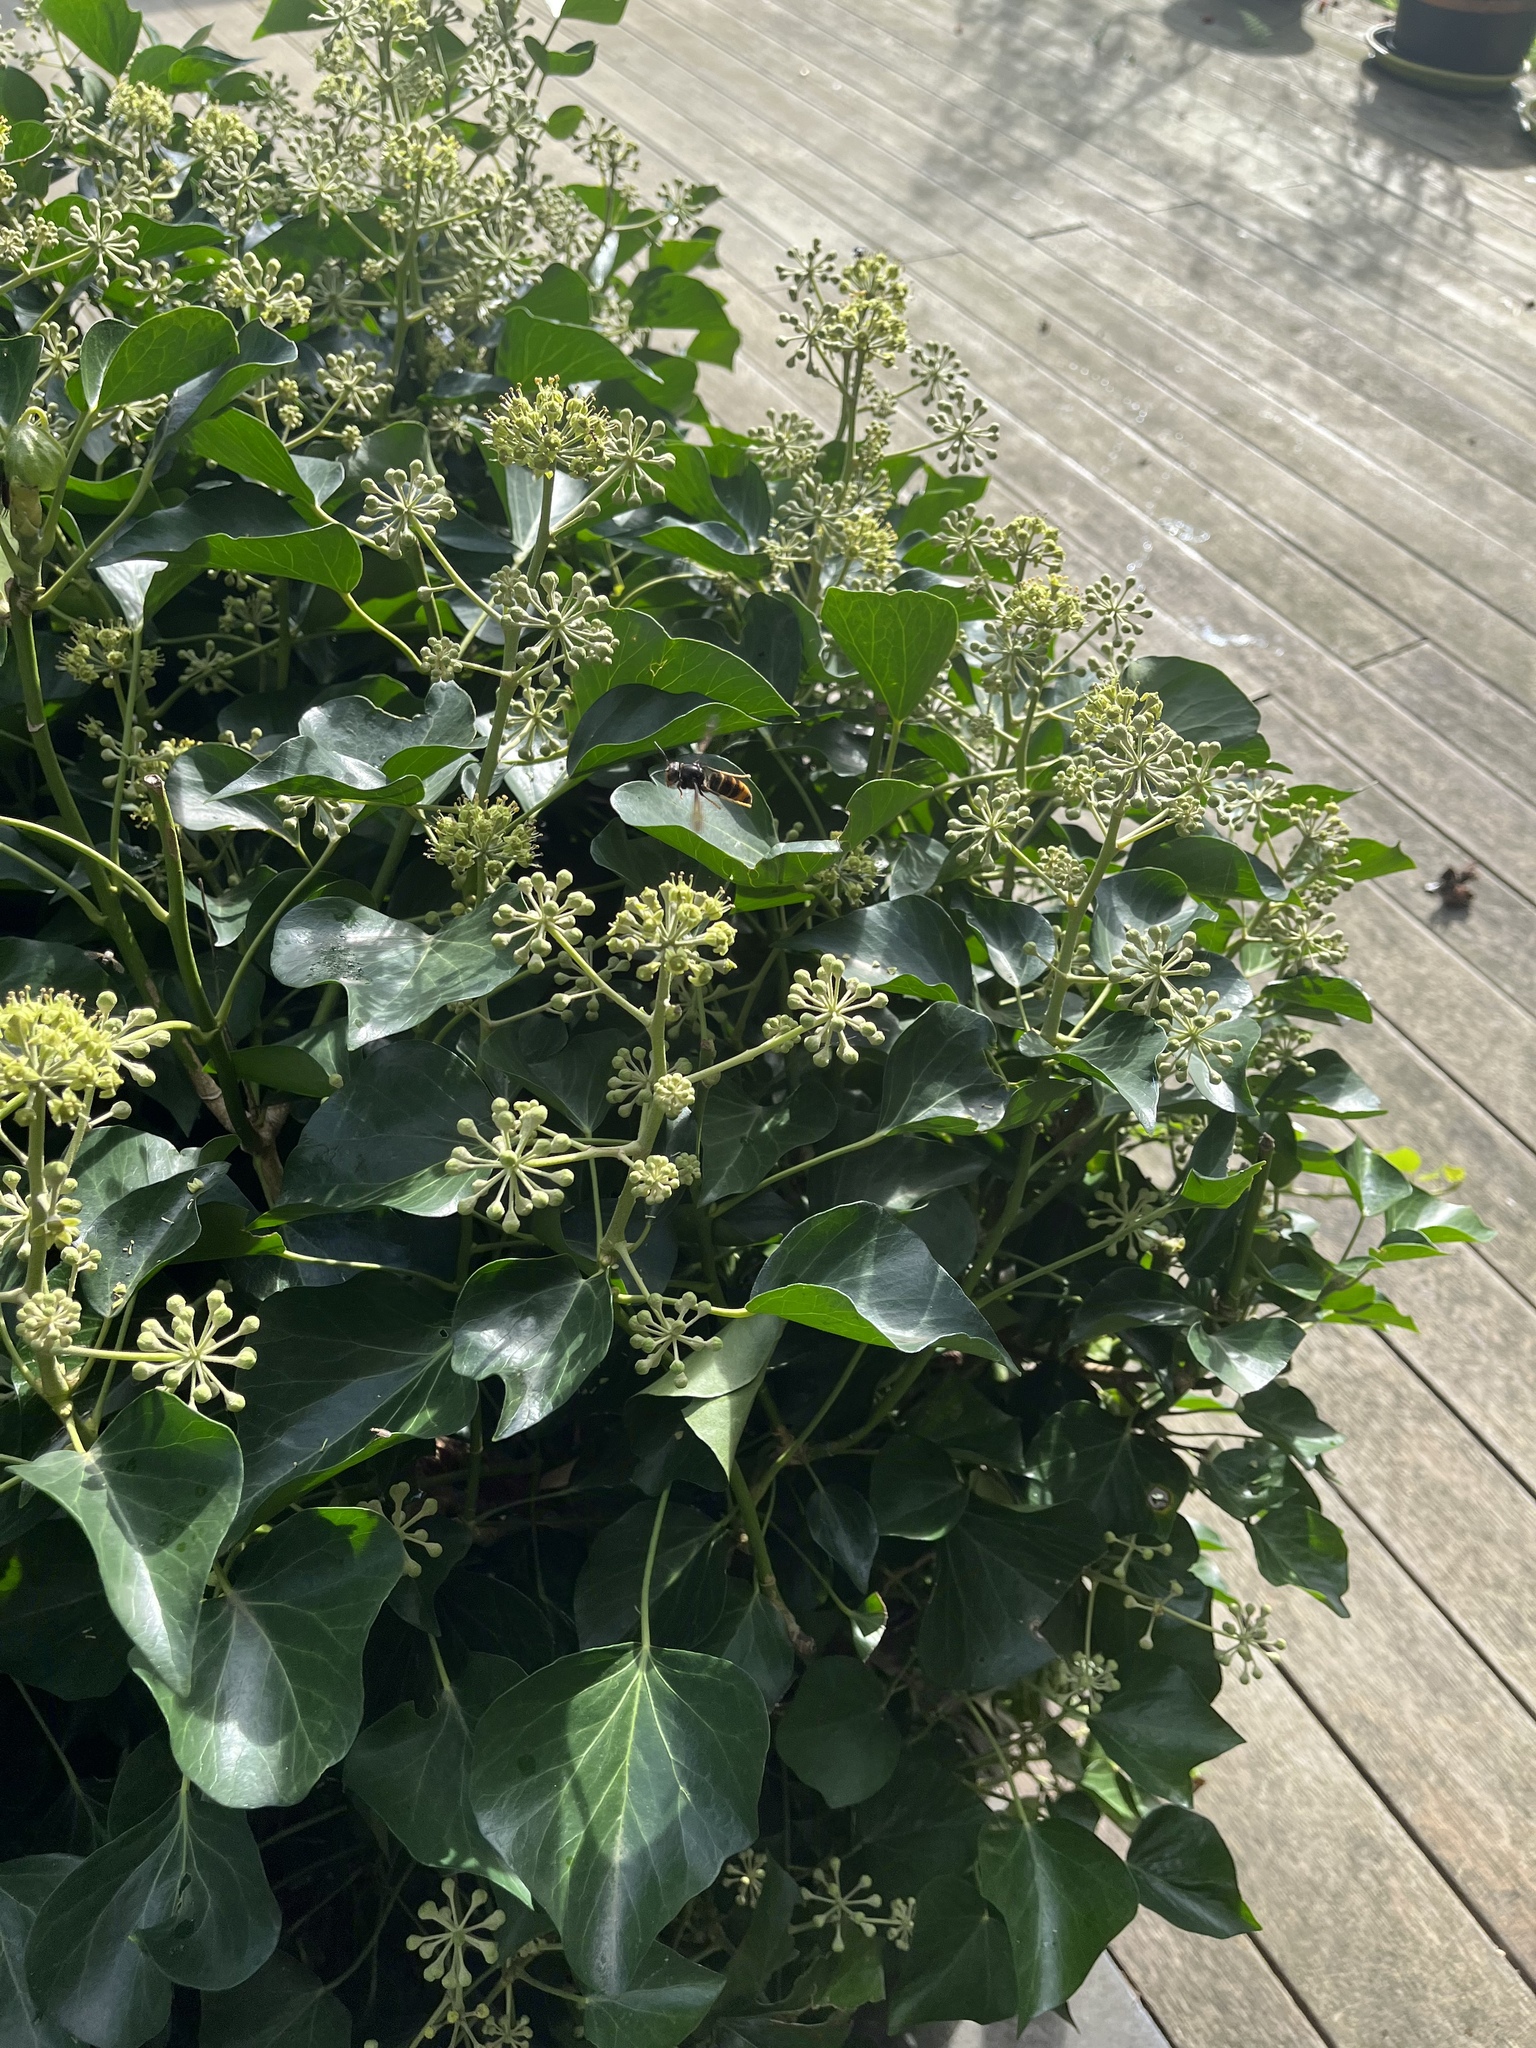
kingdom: Animalia
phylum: Arthropoda
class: Insecta
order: Hymenoptera
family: Vespidae
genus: Vespa
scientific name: Vespa velutina
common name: Asian hornet
